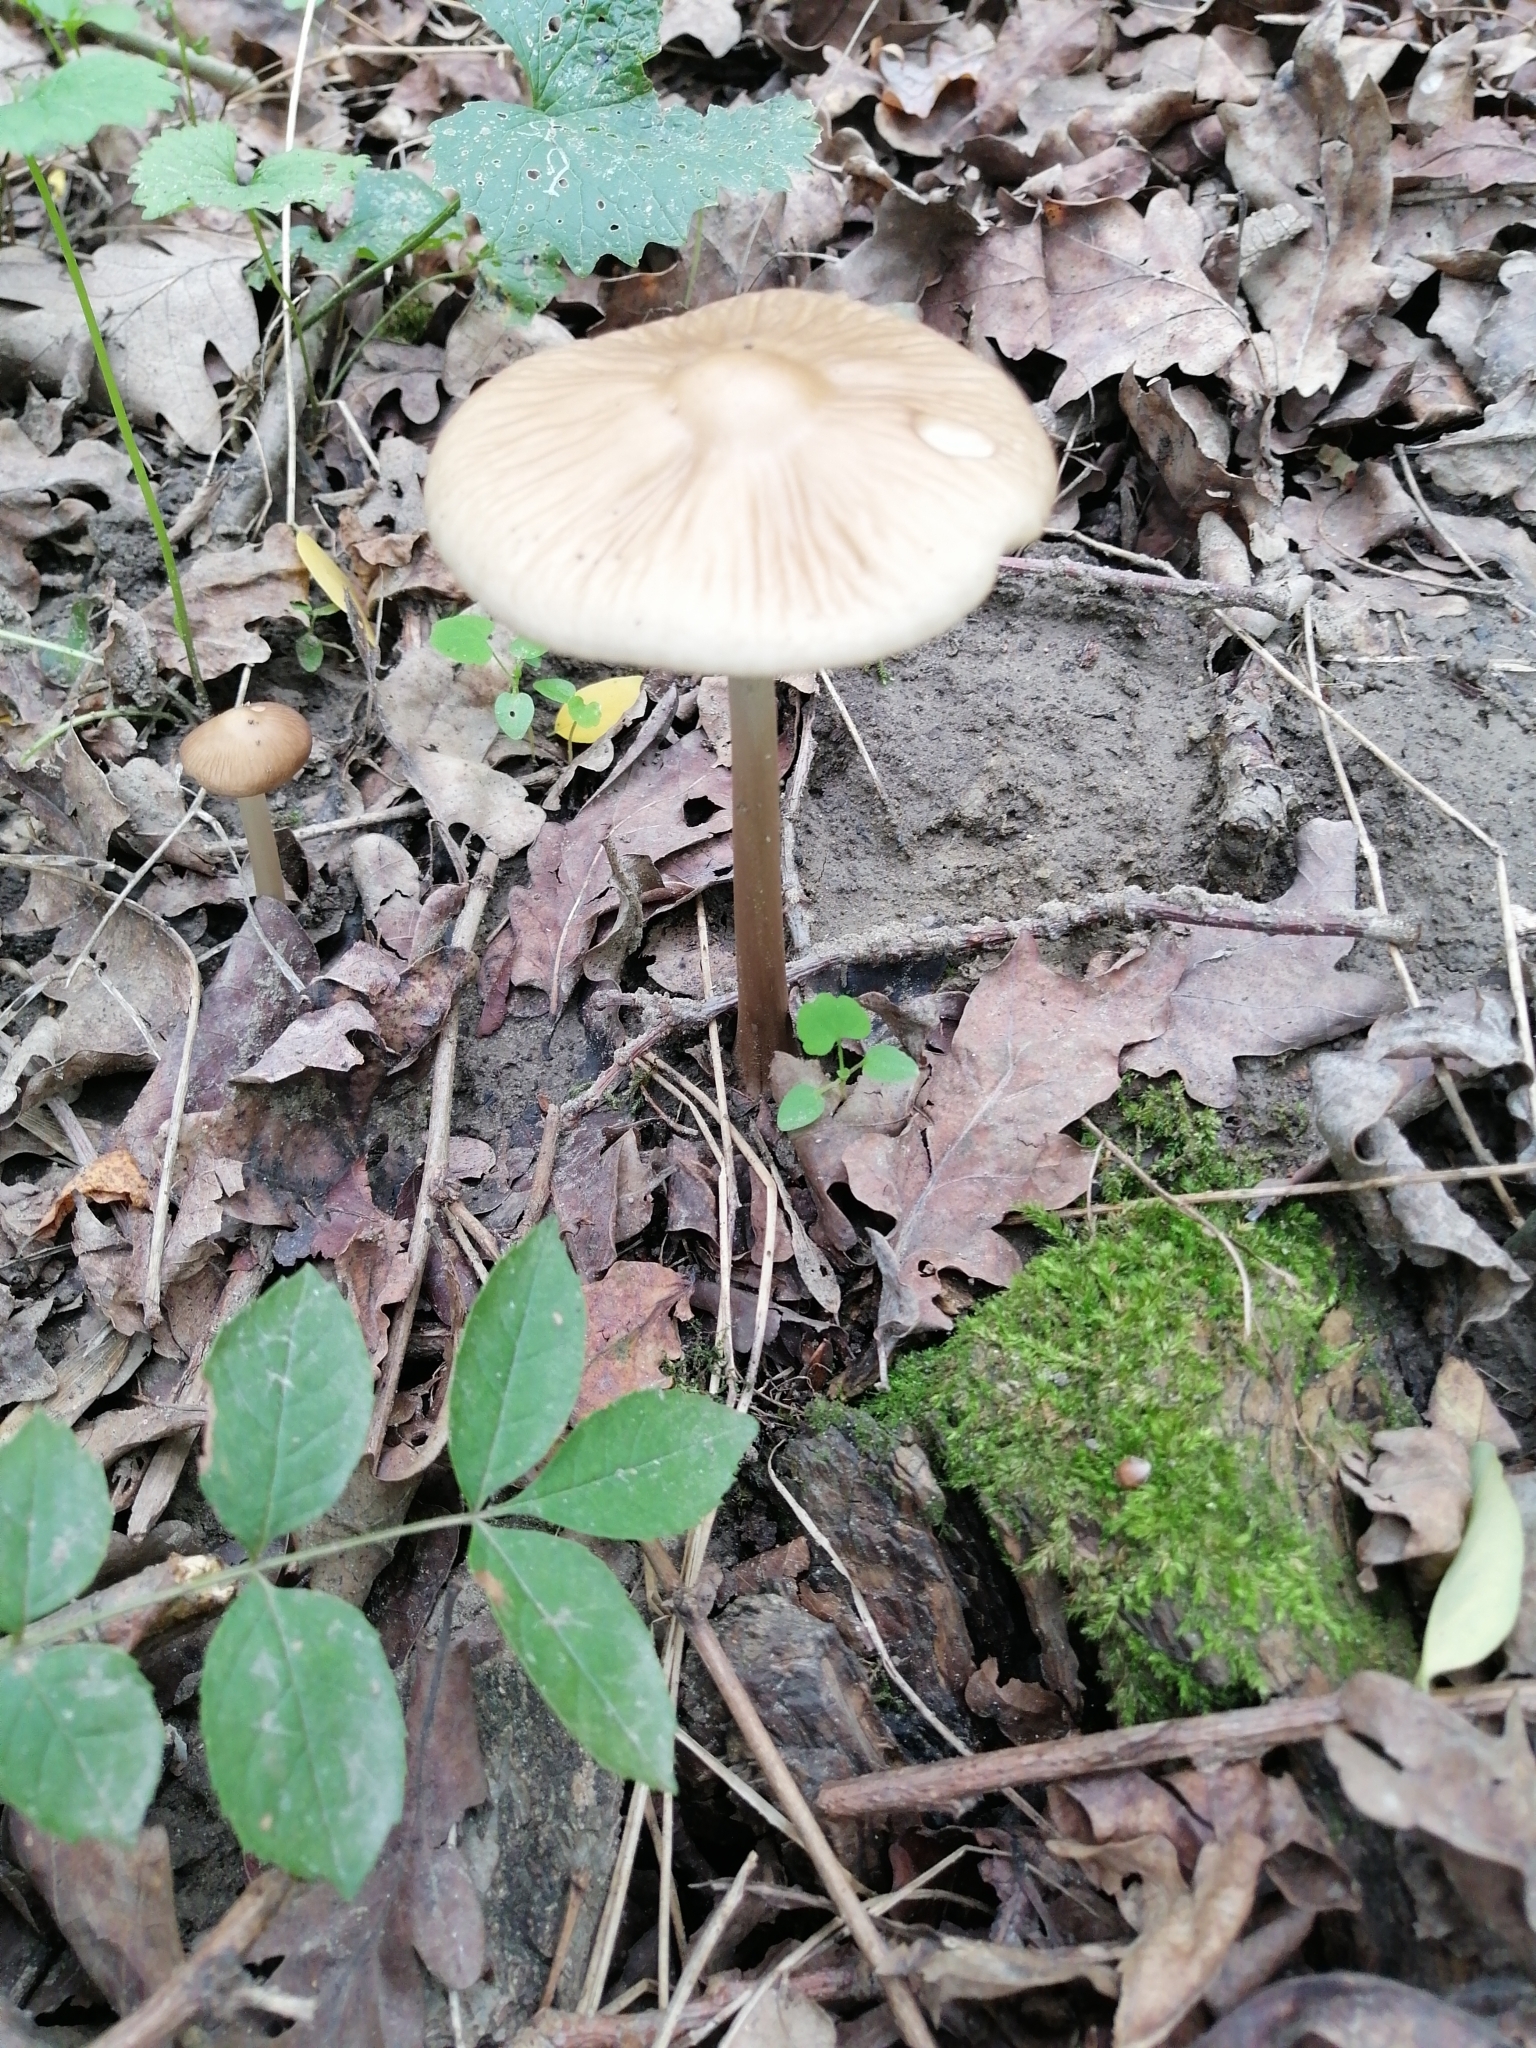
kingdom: Fungi
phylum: Basidiomycota
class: Agaricomycetes
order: Agaricales
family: Physalacriaceae
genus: Hymenopellis
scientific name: Hymenopellis radicata
